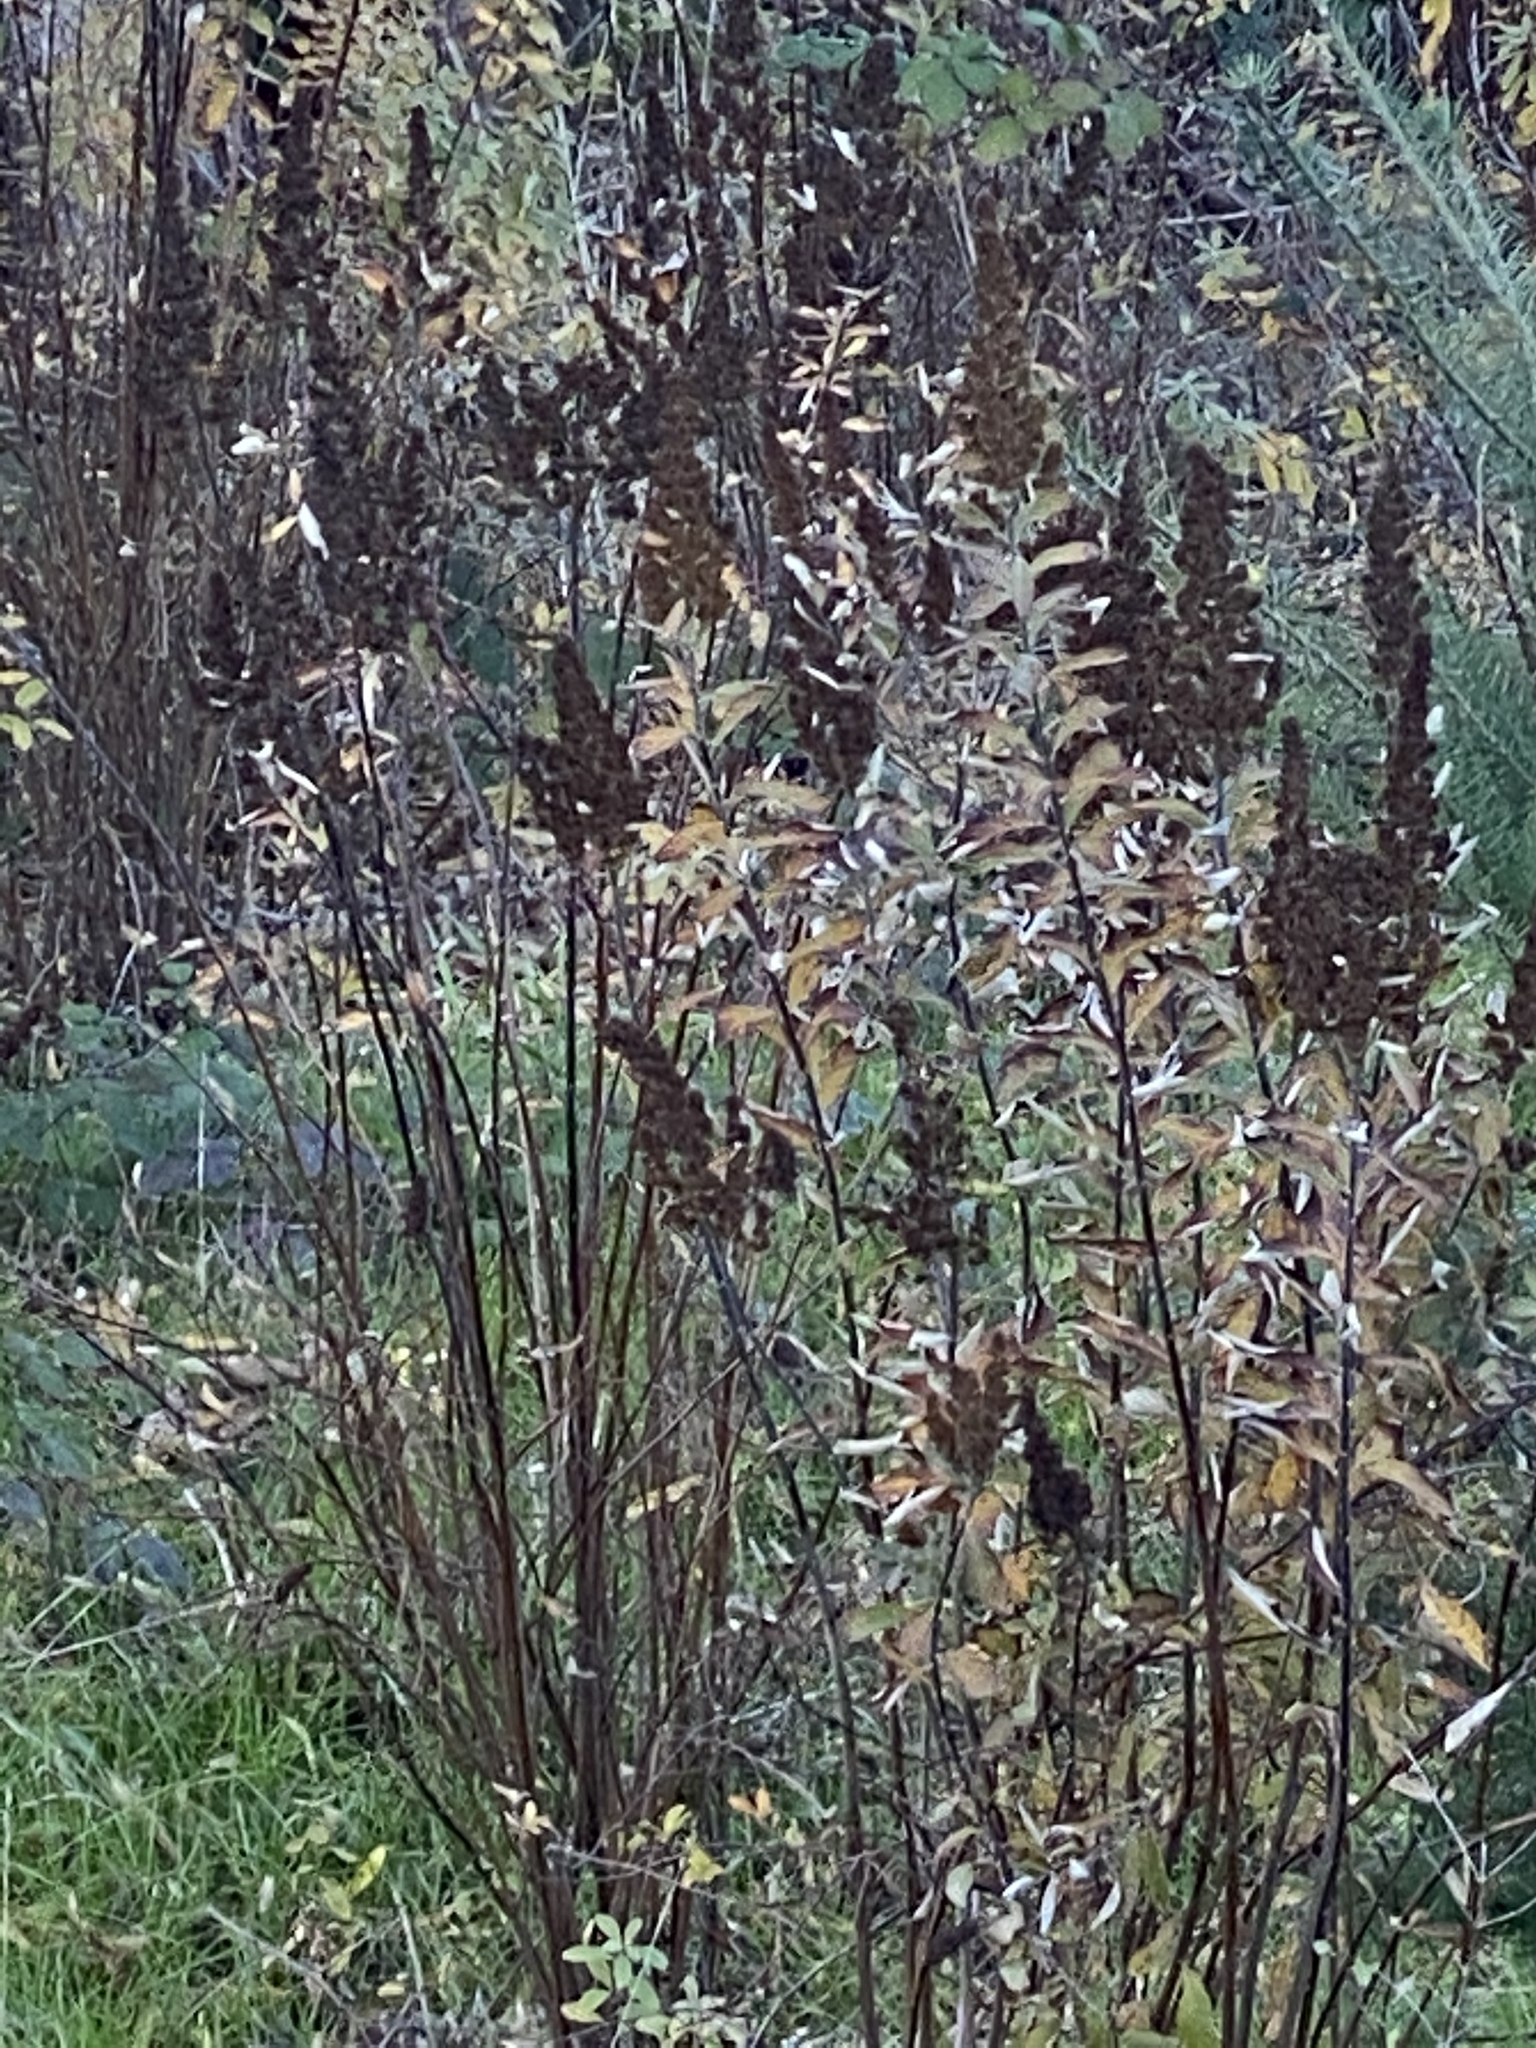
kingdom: Plantae
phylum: Tracheophyta
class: Magnoliopsida
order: Rosales
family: Rosaceae
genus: Spiraea
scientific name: Spiraea douglasii
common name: Steeplebush
